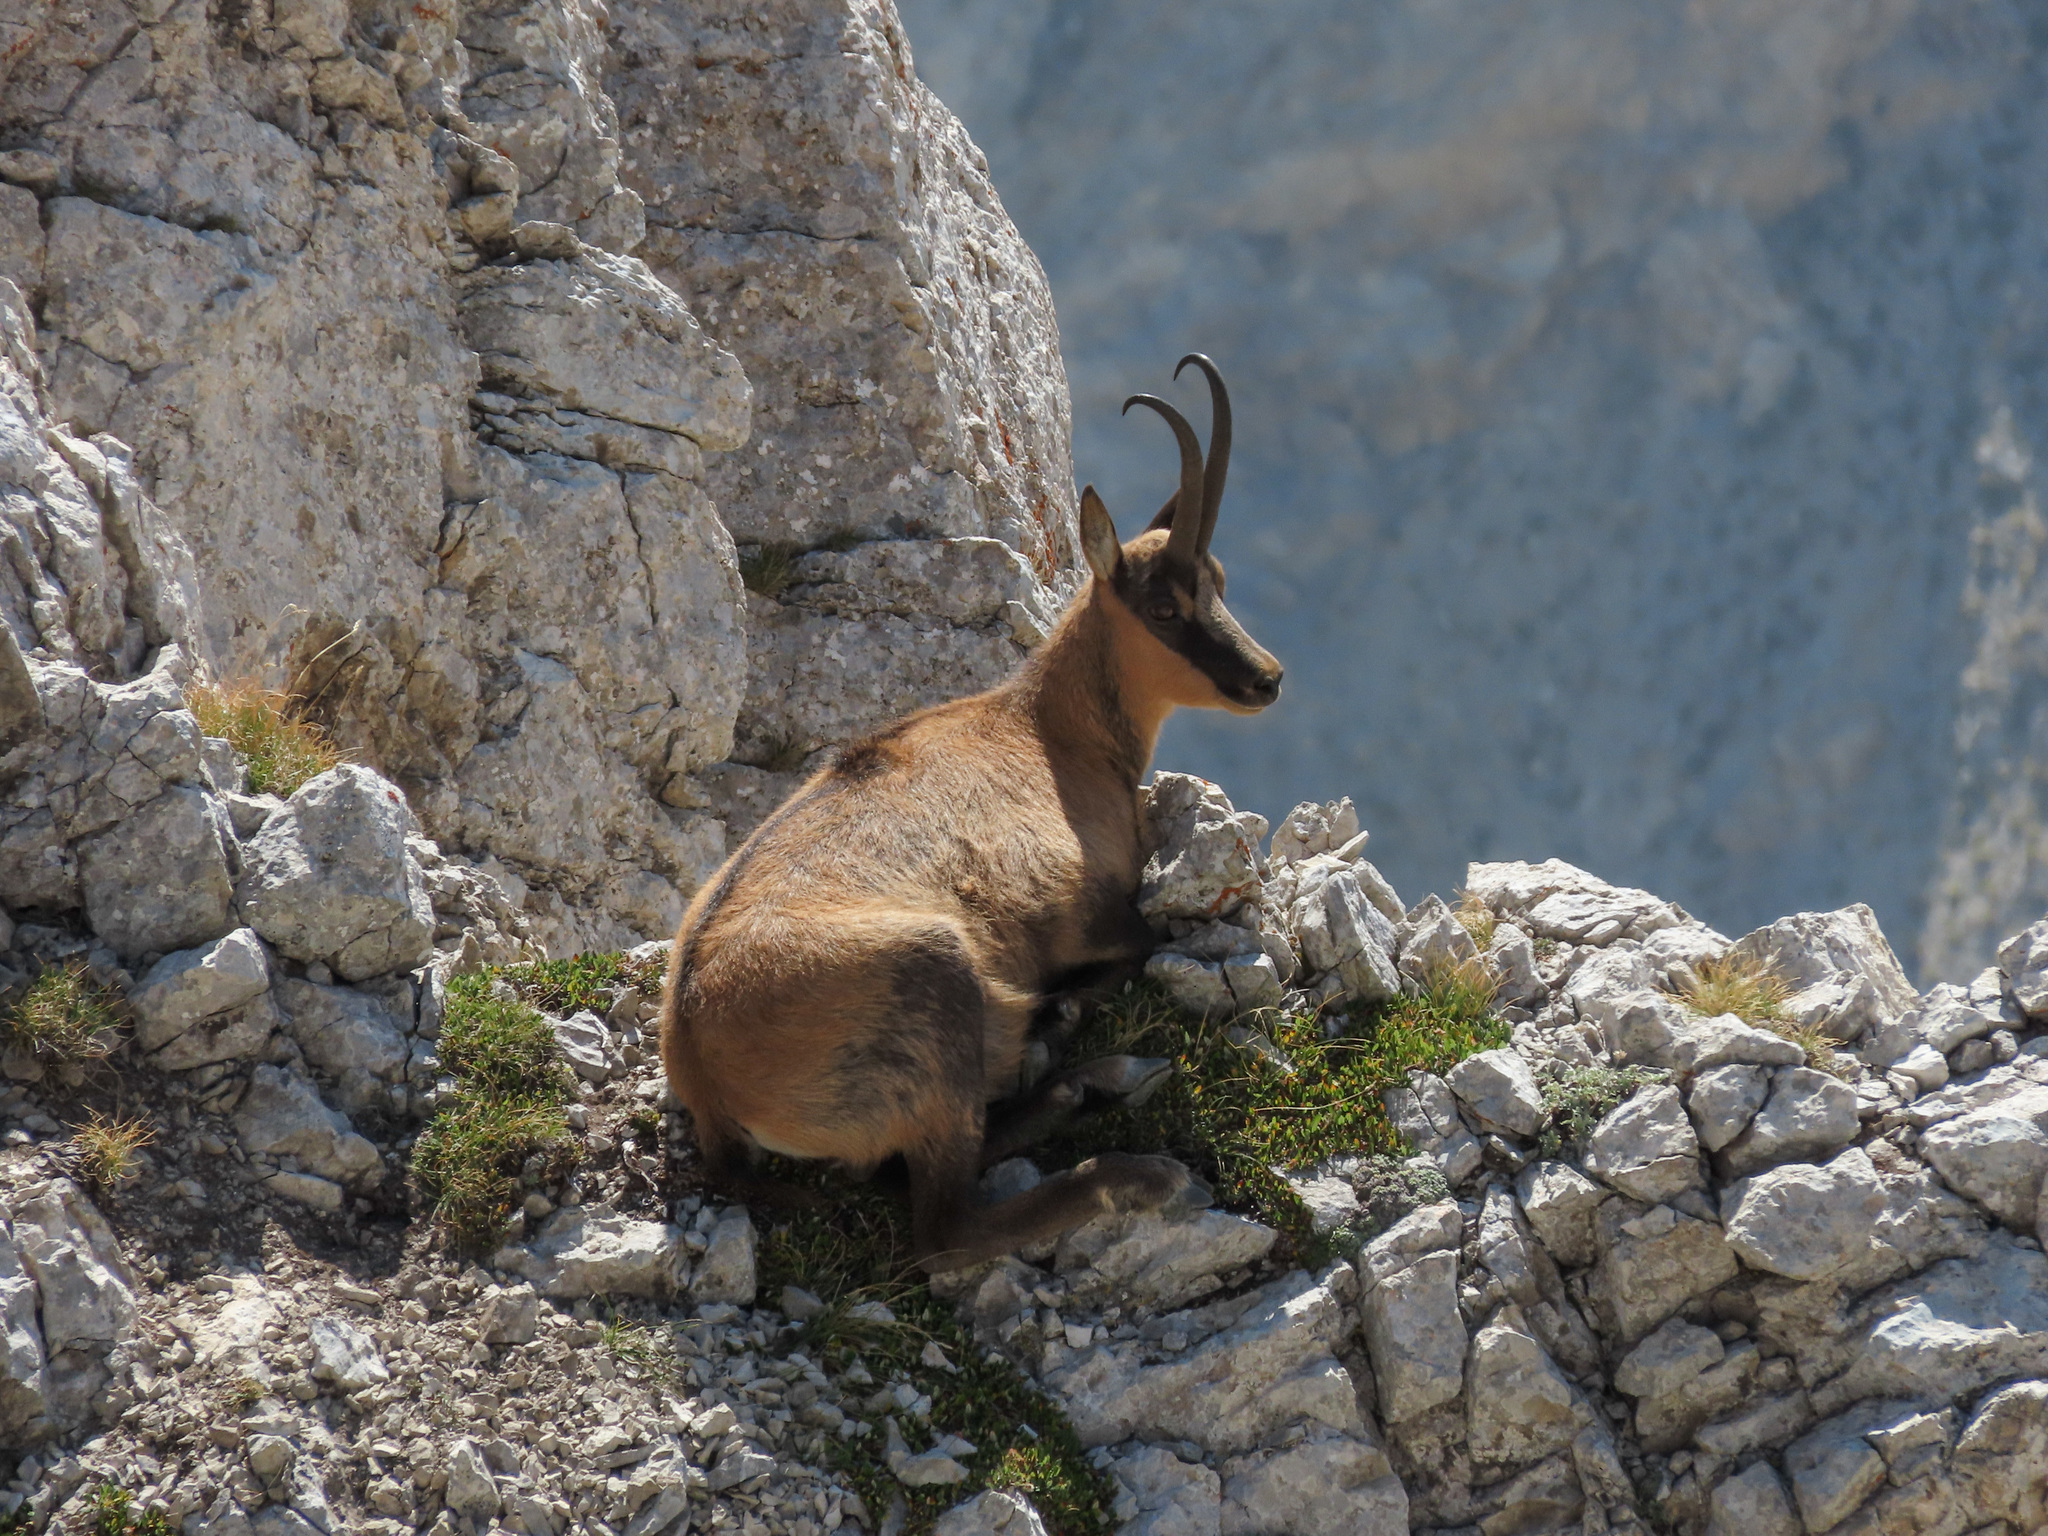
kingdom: Animalia
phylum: Chordata
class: Mammalia
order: Artiodactyla
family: Bovidae
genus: Rupicapra
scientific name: Rupicapra pyrenaica
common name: Pyrenean chamois
